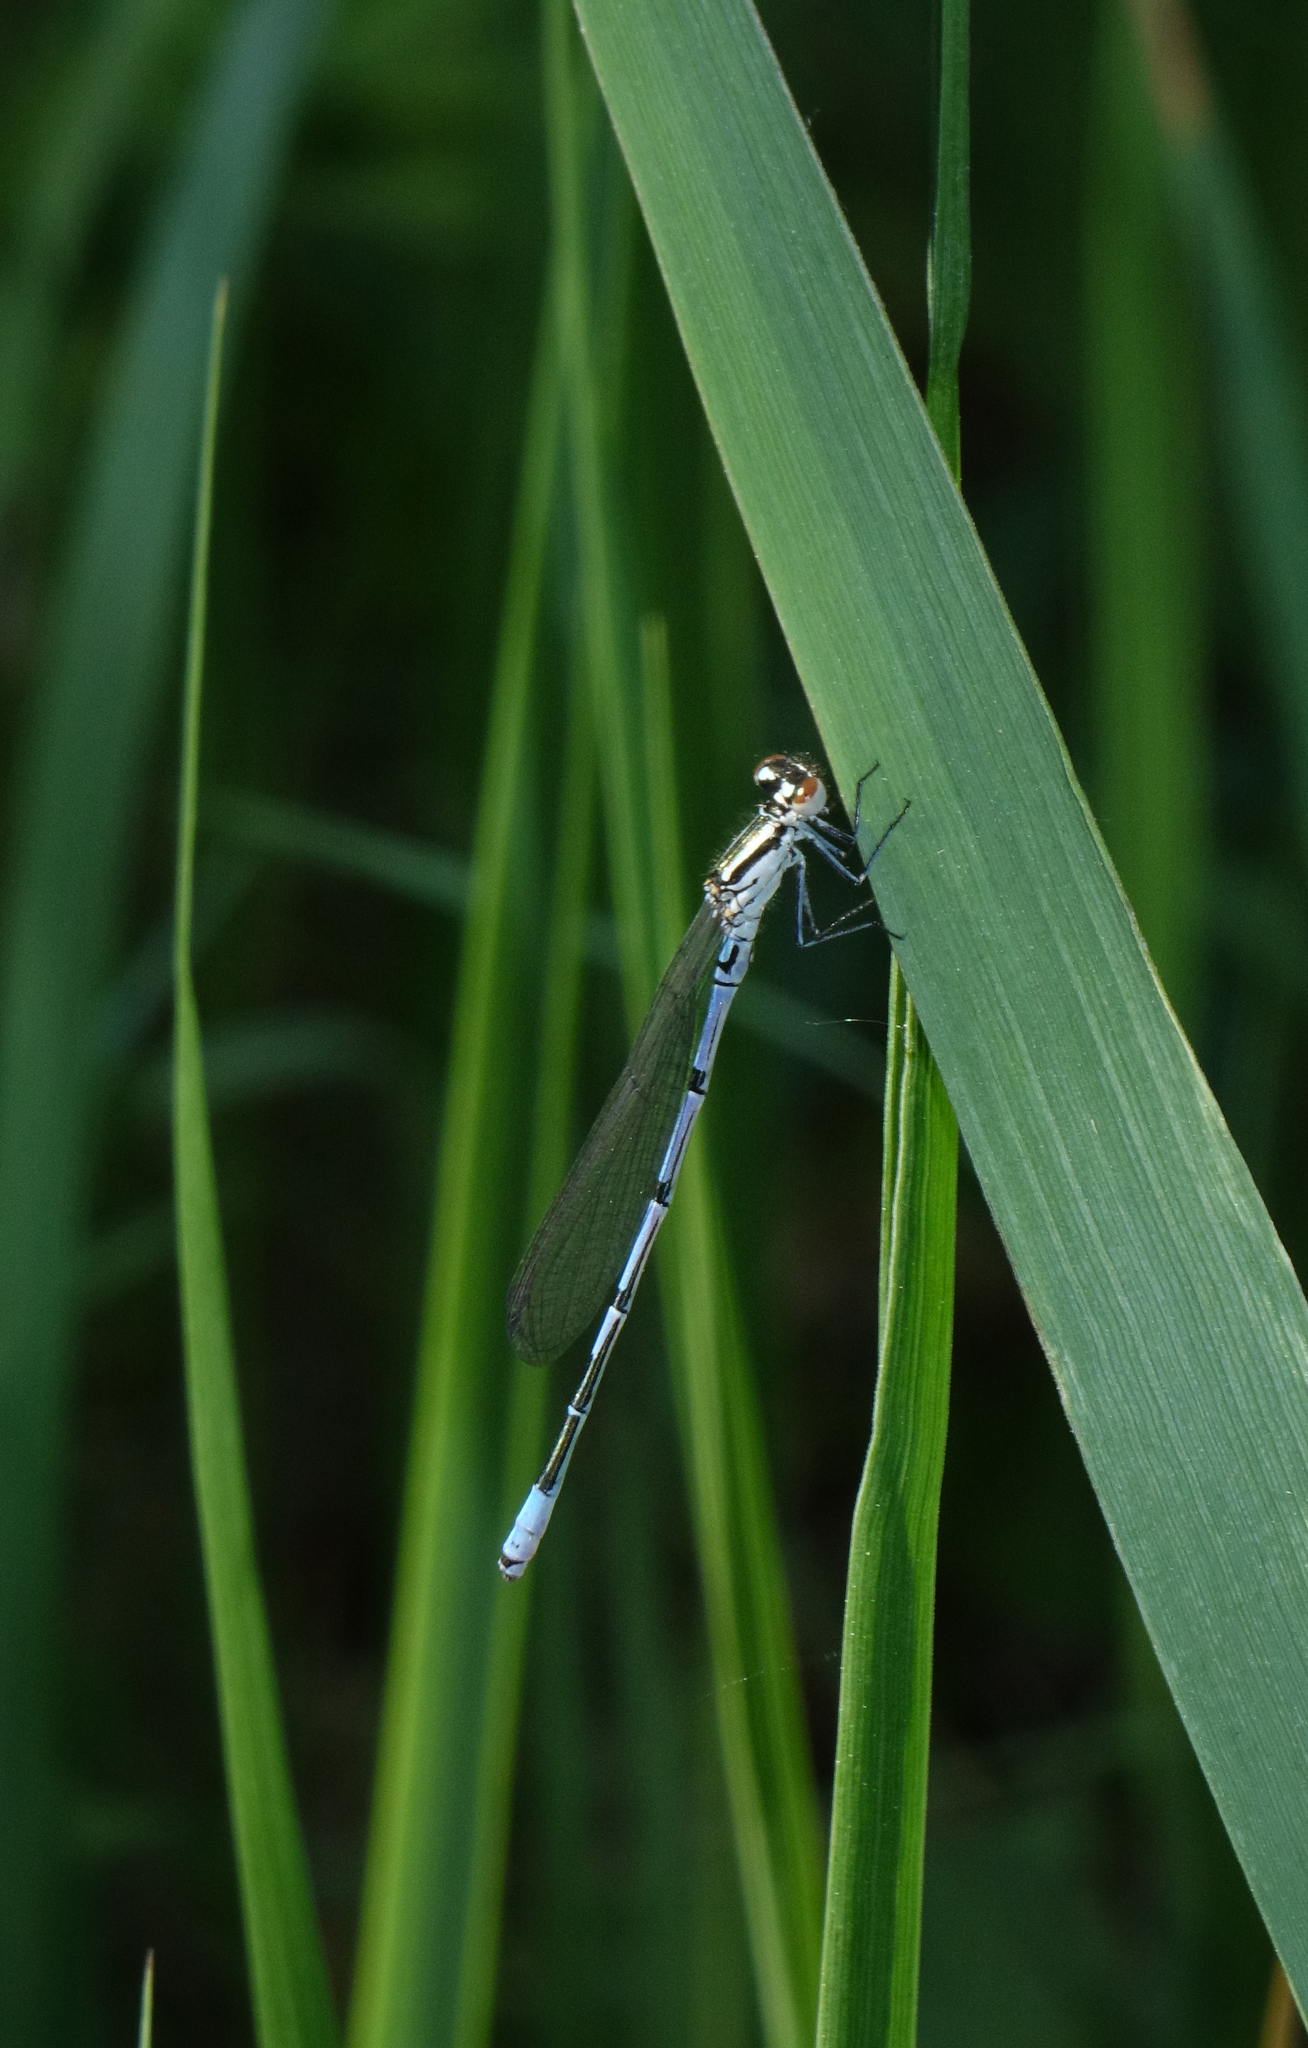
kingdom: Animalia
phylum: Arthropoda
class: Insecta
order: Odonata
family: Coenagrionidae
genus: Coenagrion
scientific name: Coenagrion puella
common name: Azure damselfly
